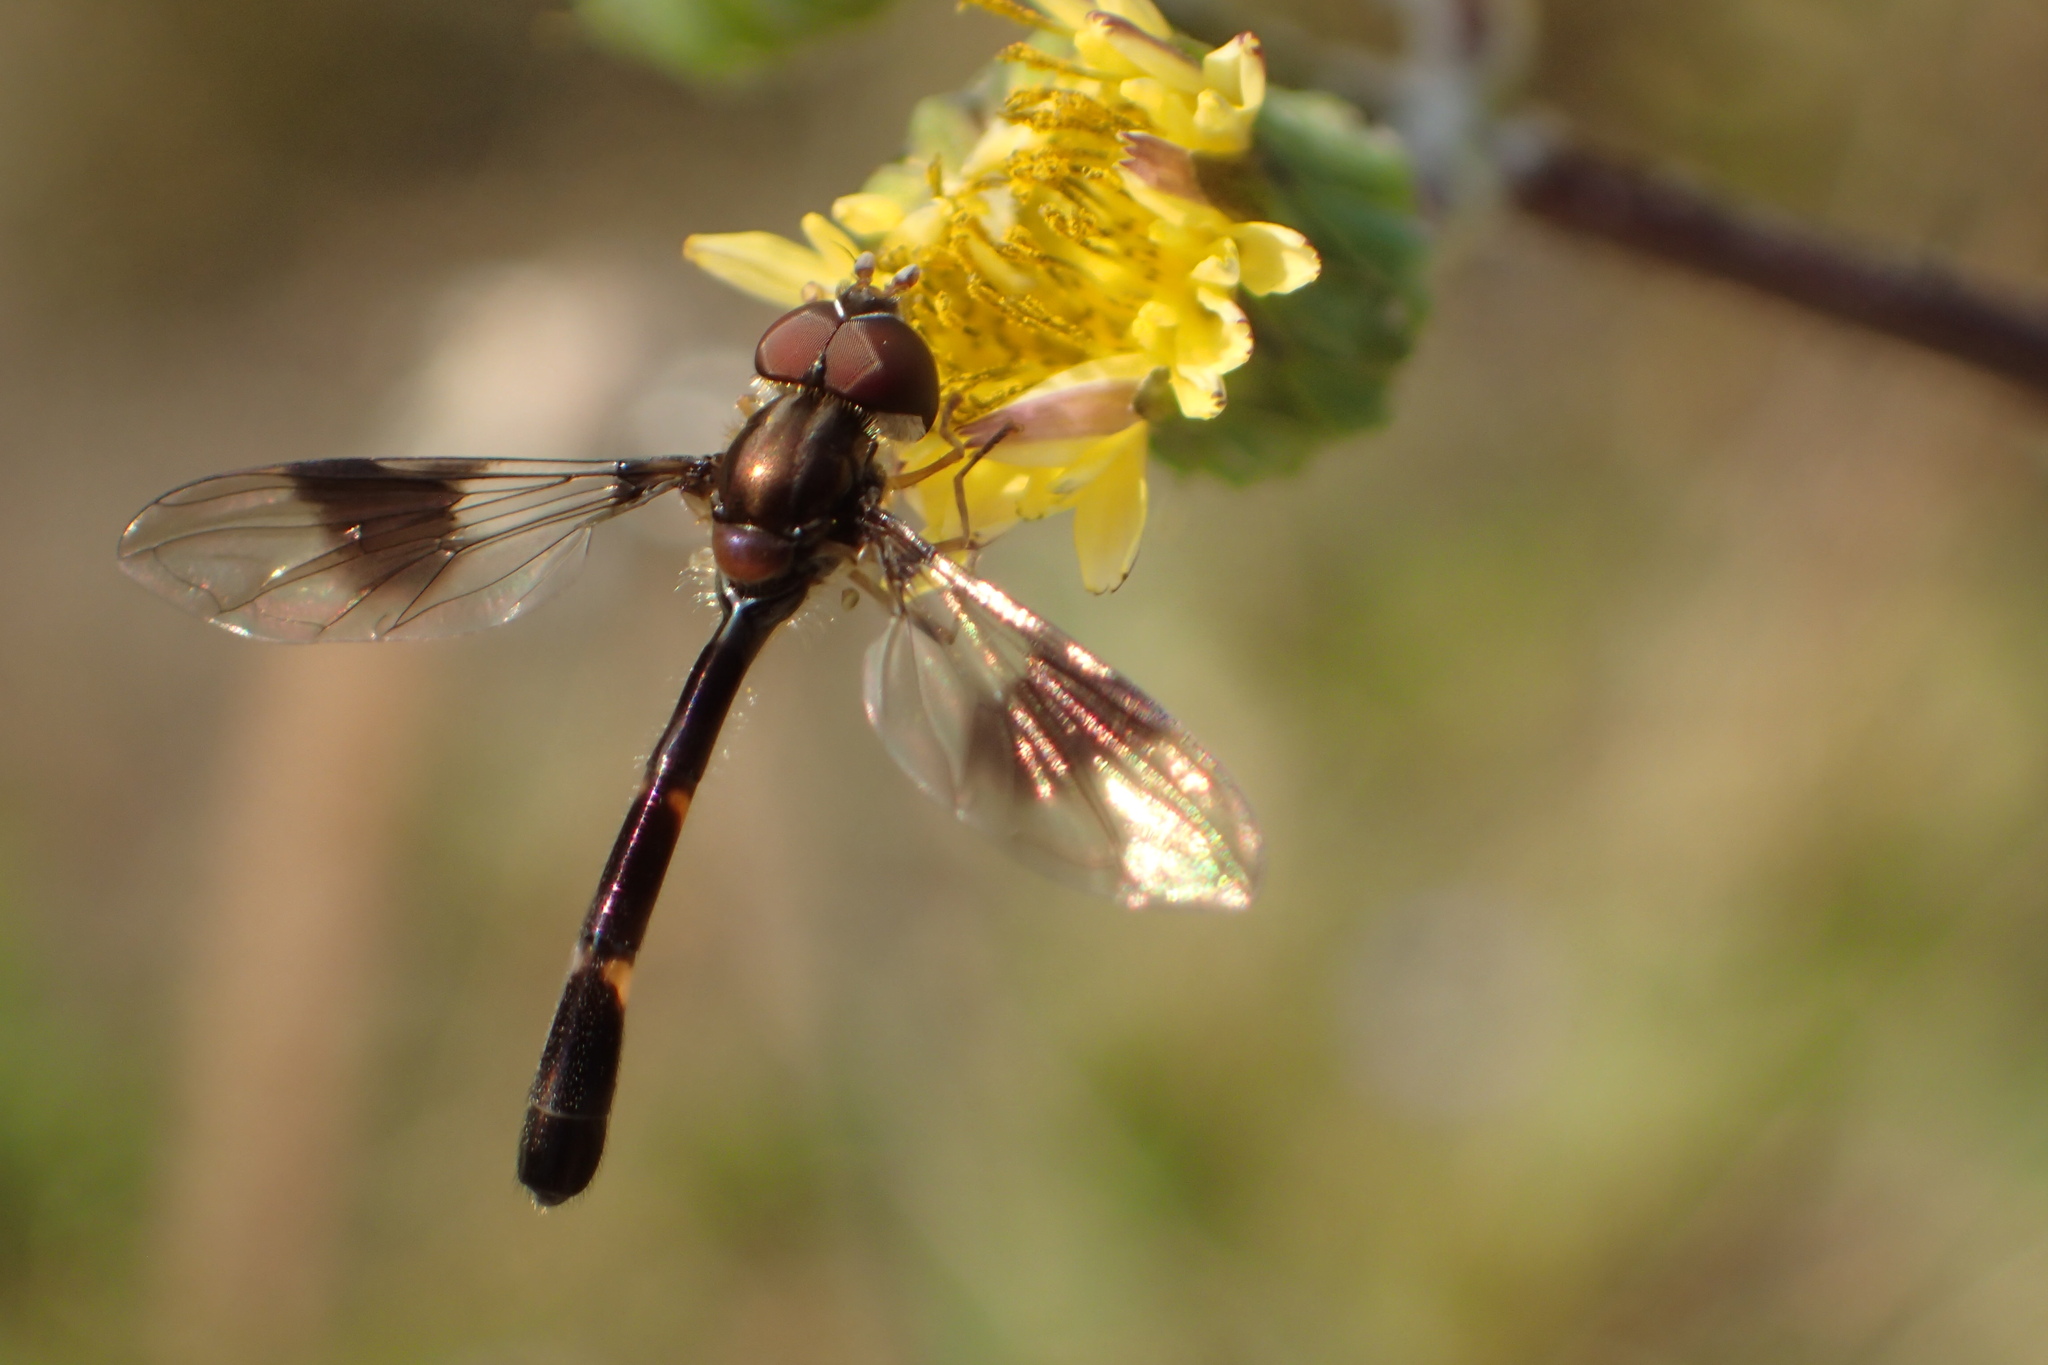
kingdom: Animalia
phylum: Arthropoda
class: Insecta
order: Diptera
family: Syrphidae
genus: Hypocritanus
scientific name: Hypocritanus fascipennis
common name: Eastern band-winged hover fly
